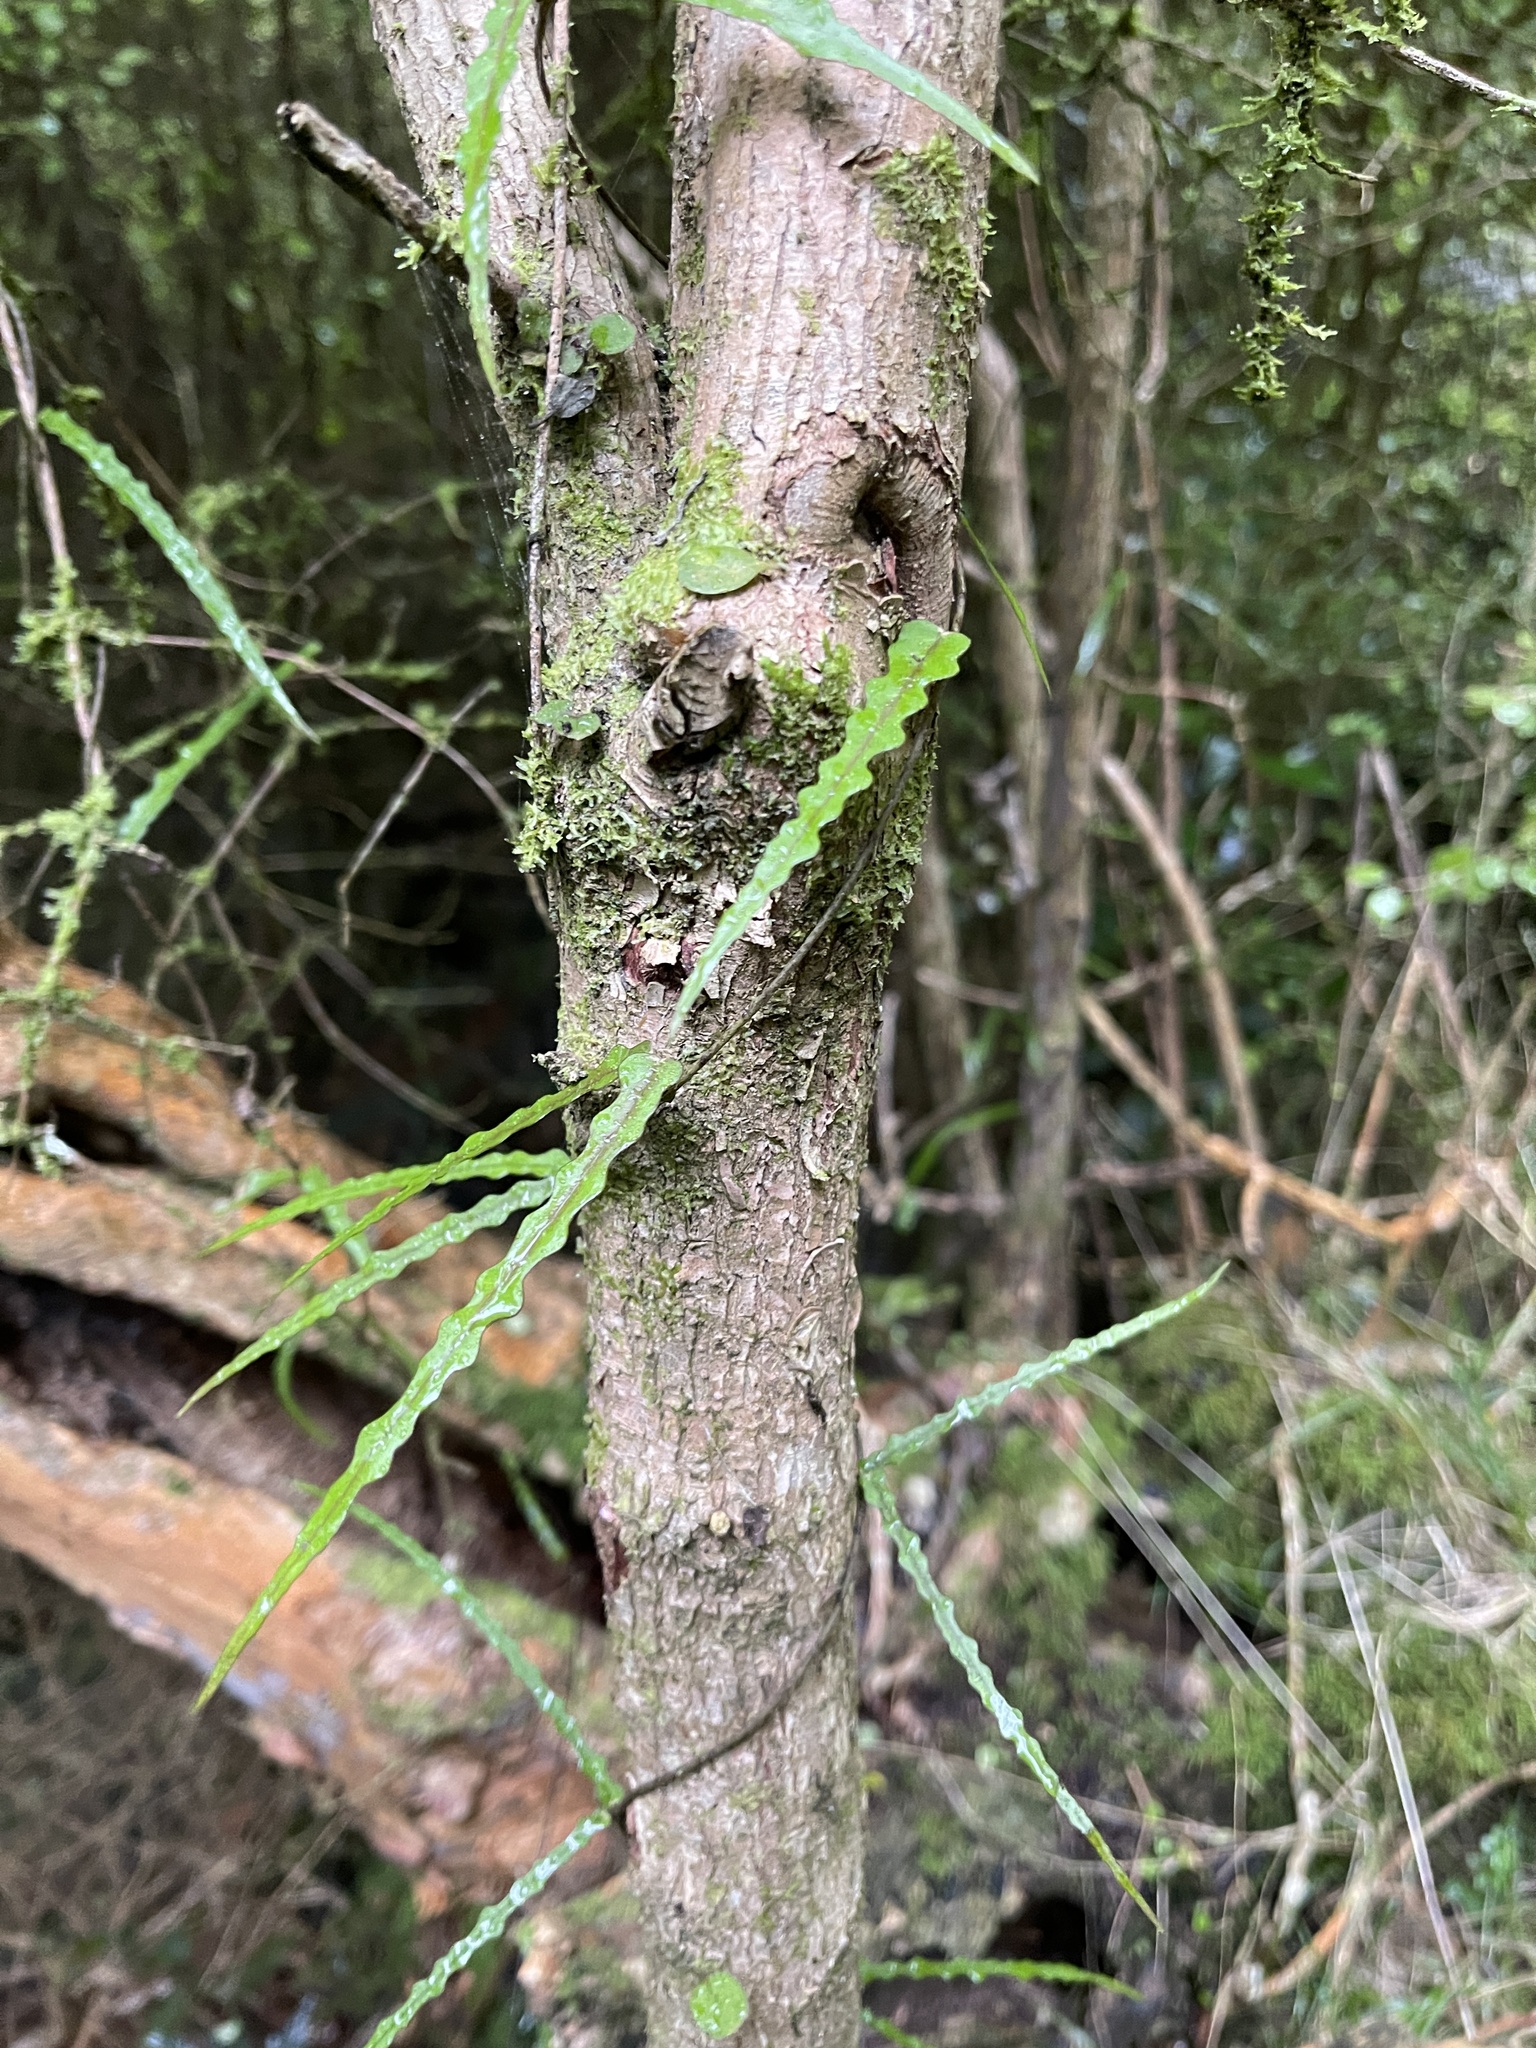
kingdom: Plantae
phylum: Tracheophyta
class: Magnoliopsida
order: Gentianales
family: Apocynaceae
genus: Parsonsia
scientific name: Parsonsia capsularis
